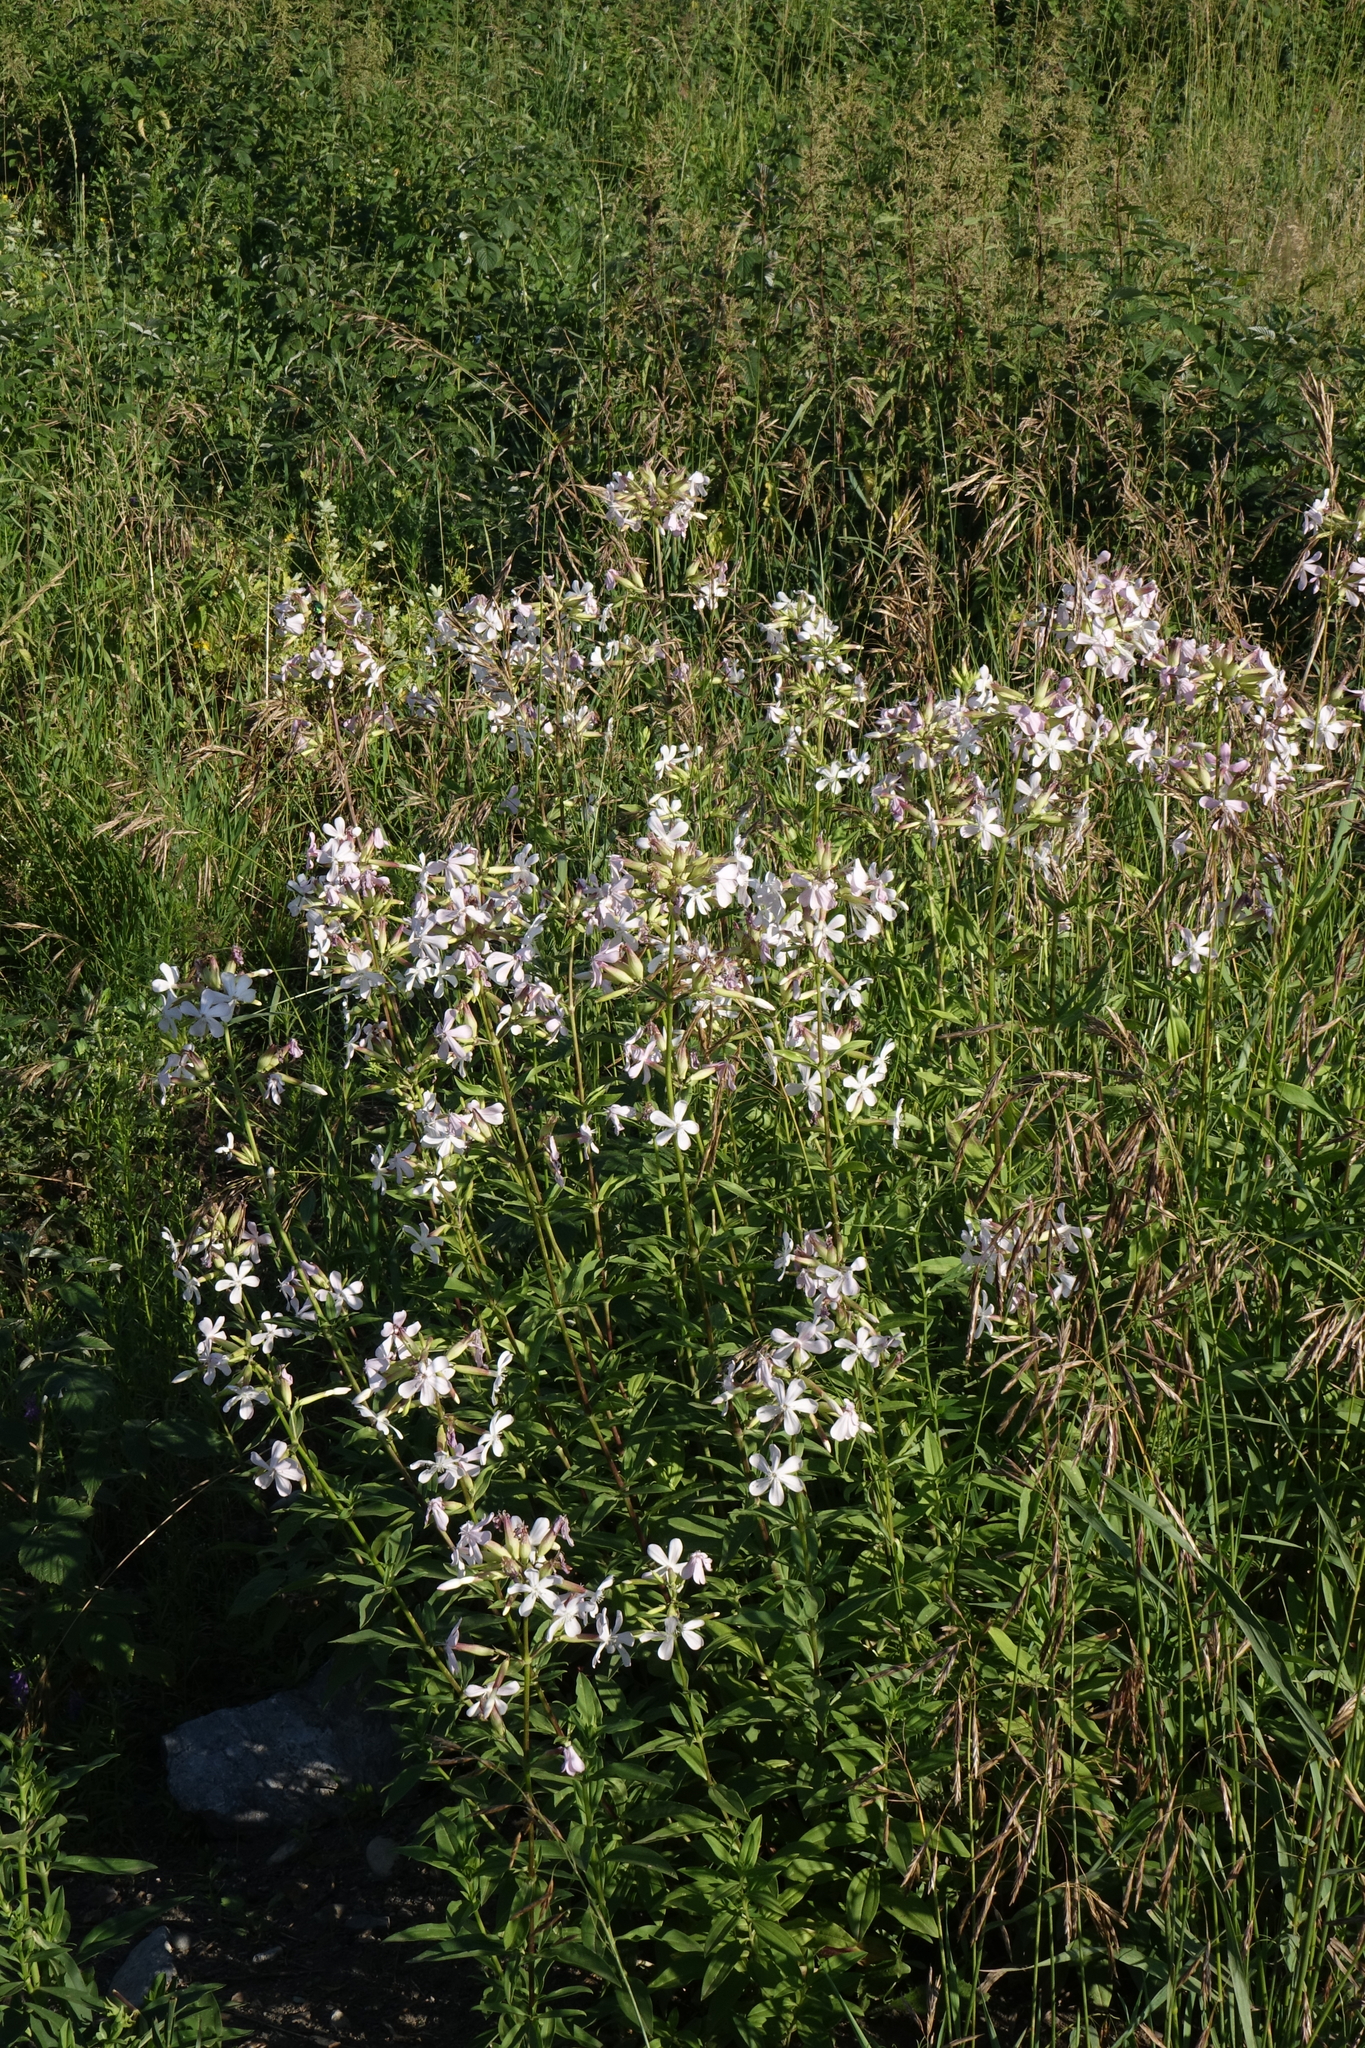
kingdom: Plantae
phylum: Tracheophyta
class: Magnoliopsida
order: Caryophyllales
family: Caryophyllaceae
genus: Saponaria
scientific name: Saponaria officinalis
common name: Soapwort
